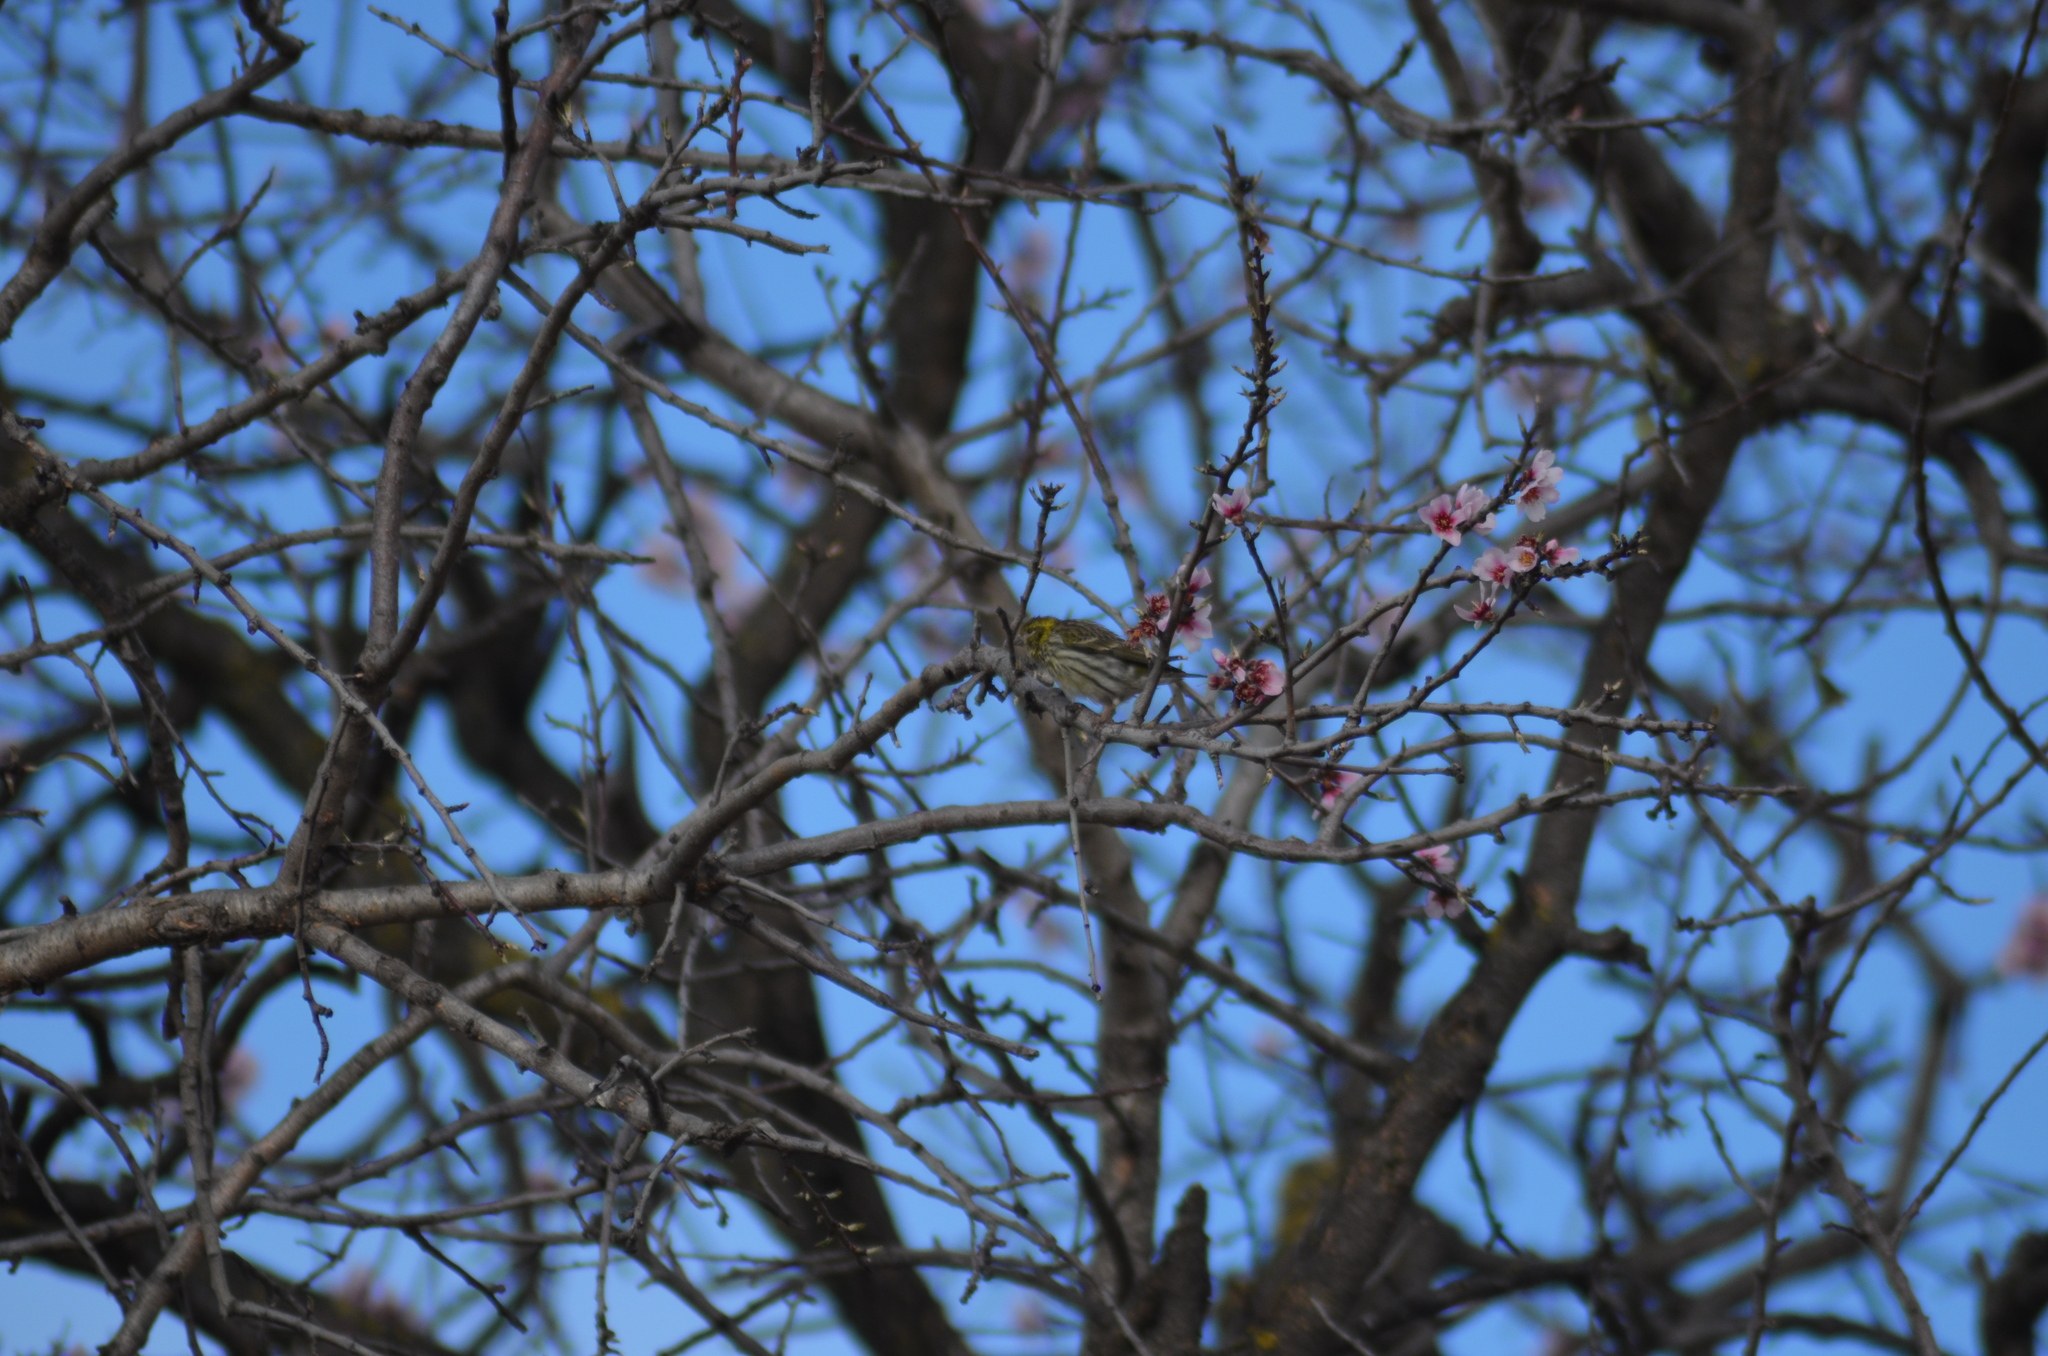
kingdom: Animalia
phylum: Chordata
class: Aves
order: Passeriformes
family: Fringillidae
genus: Serinus
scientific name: Serinus serinus
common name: European serin
